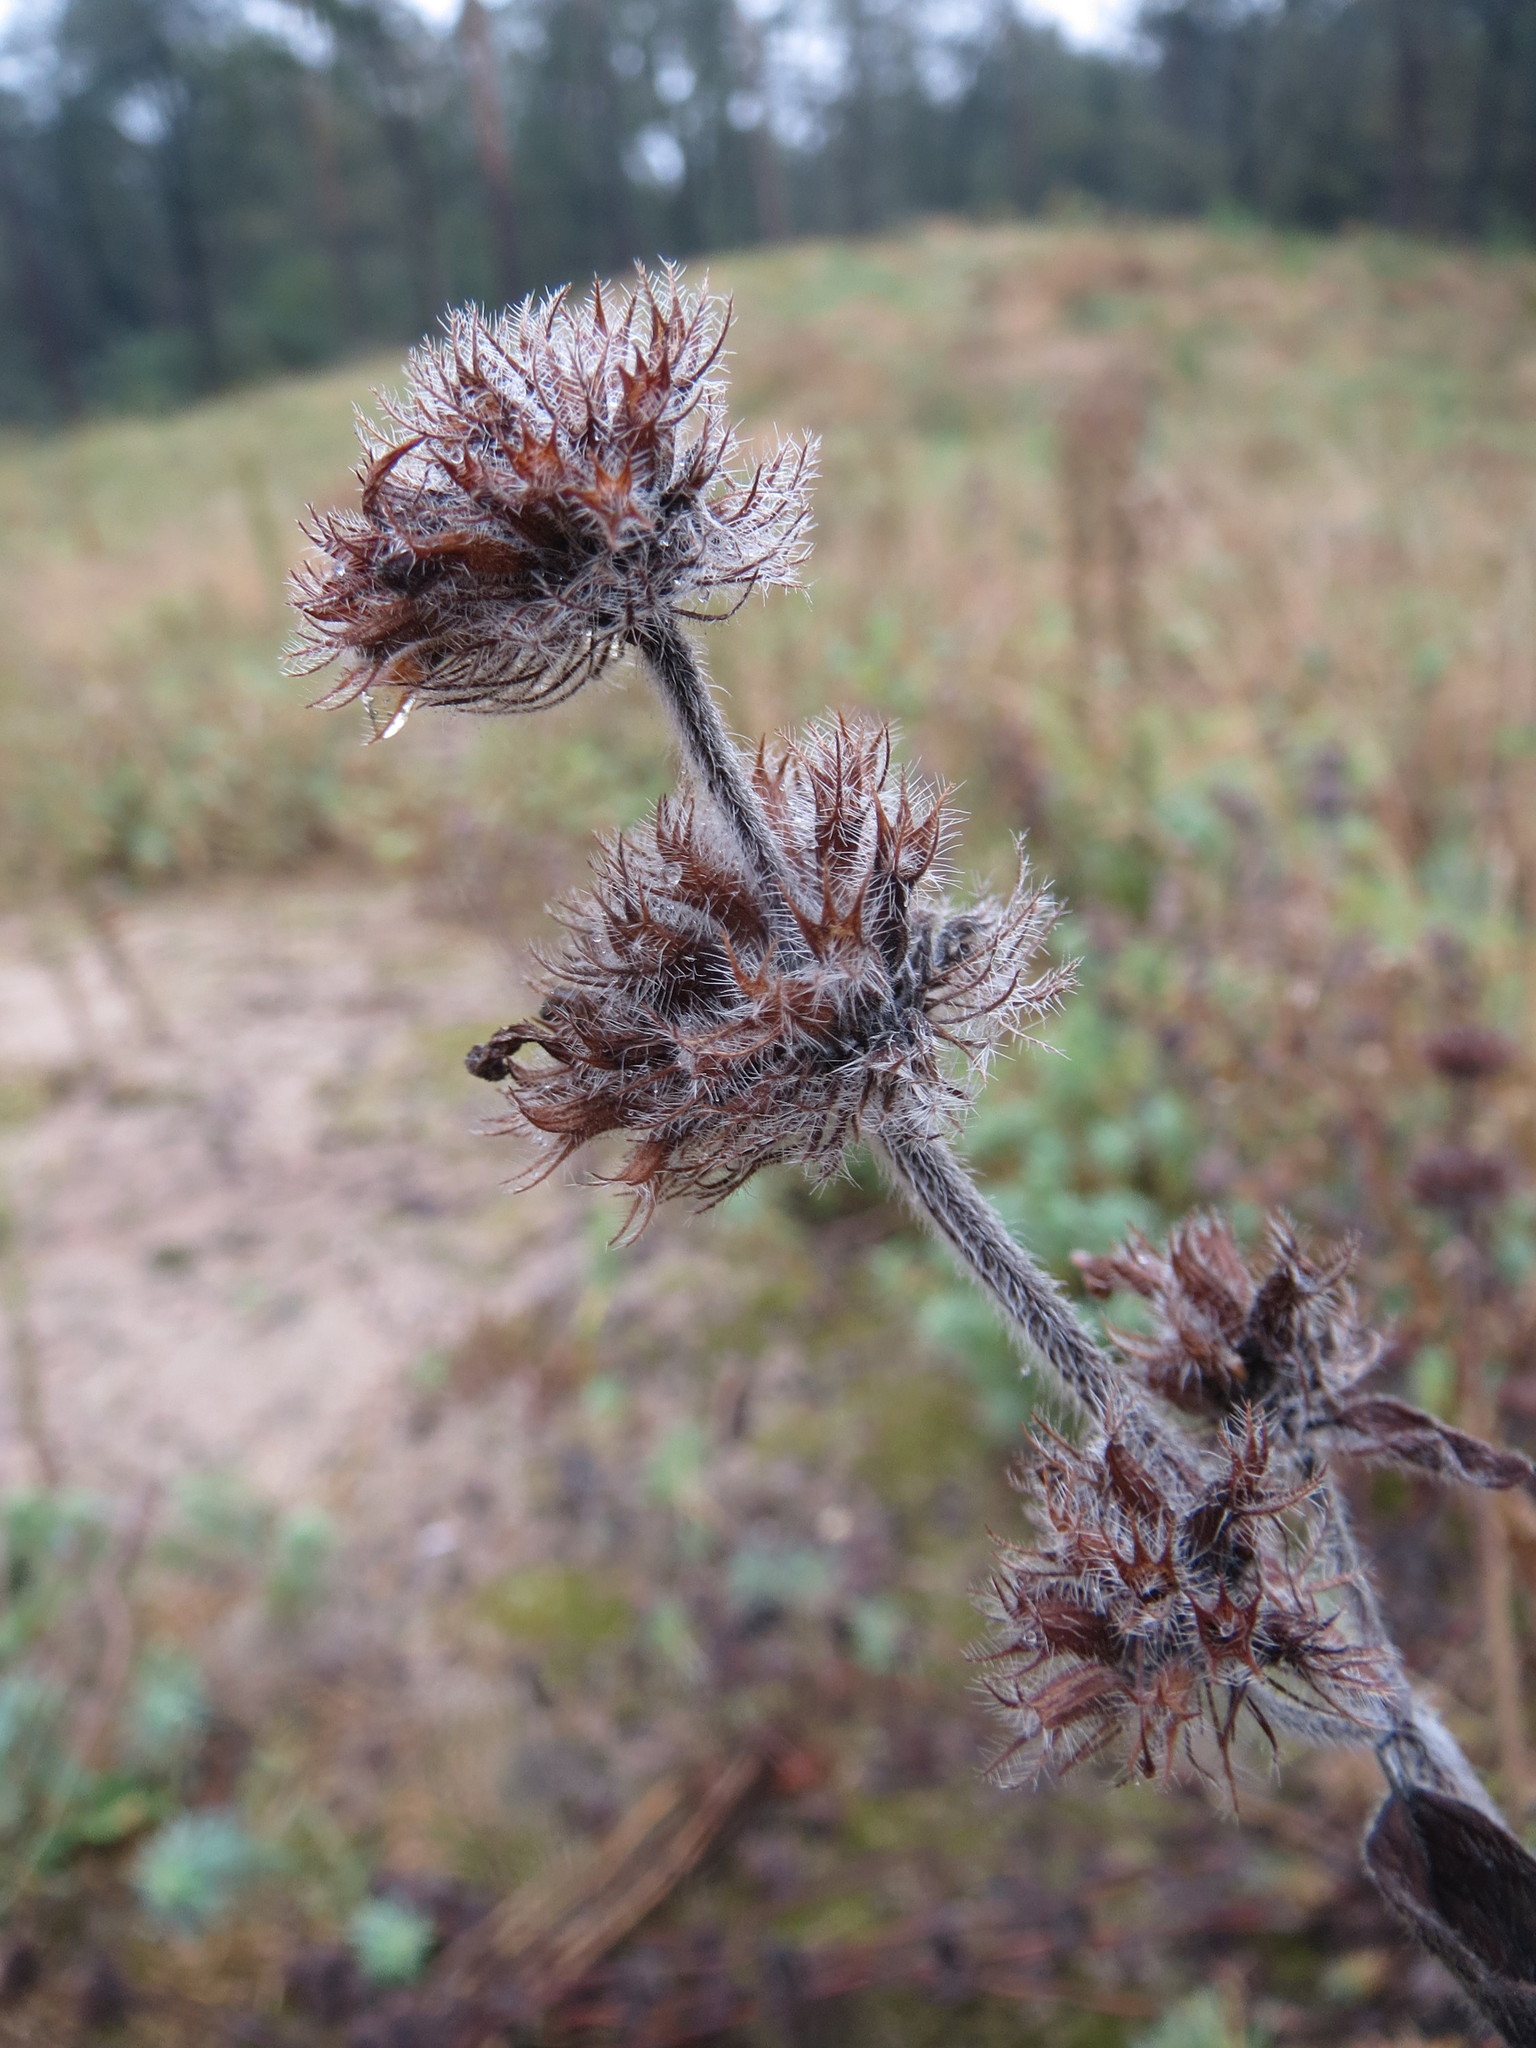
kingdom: Plantae
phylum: Tracheophyta
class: Magnoliopsida
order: Lamiales
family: Lamiaceae
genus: Clinopodium
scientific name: Clinopodium vulgare
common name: Wild basil
